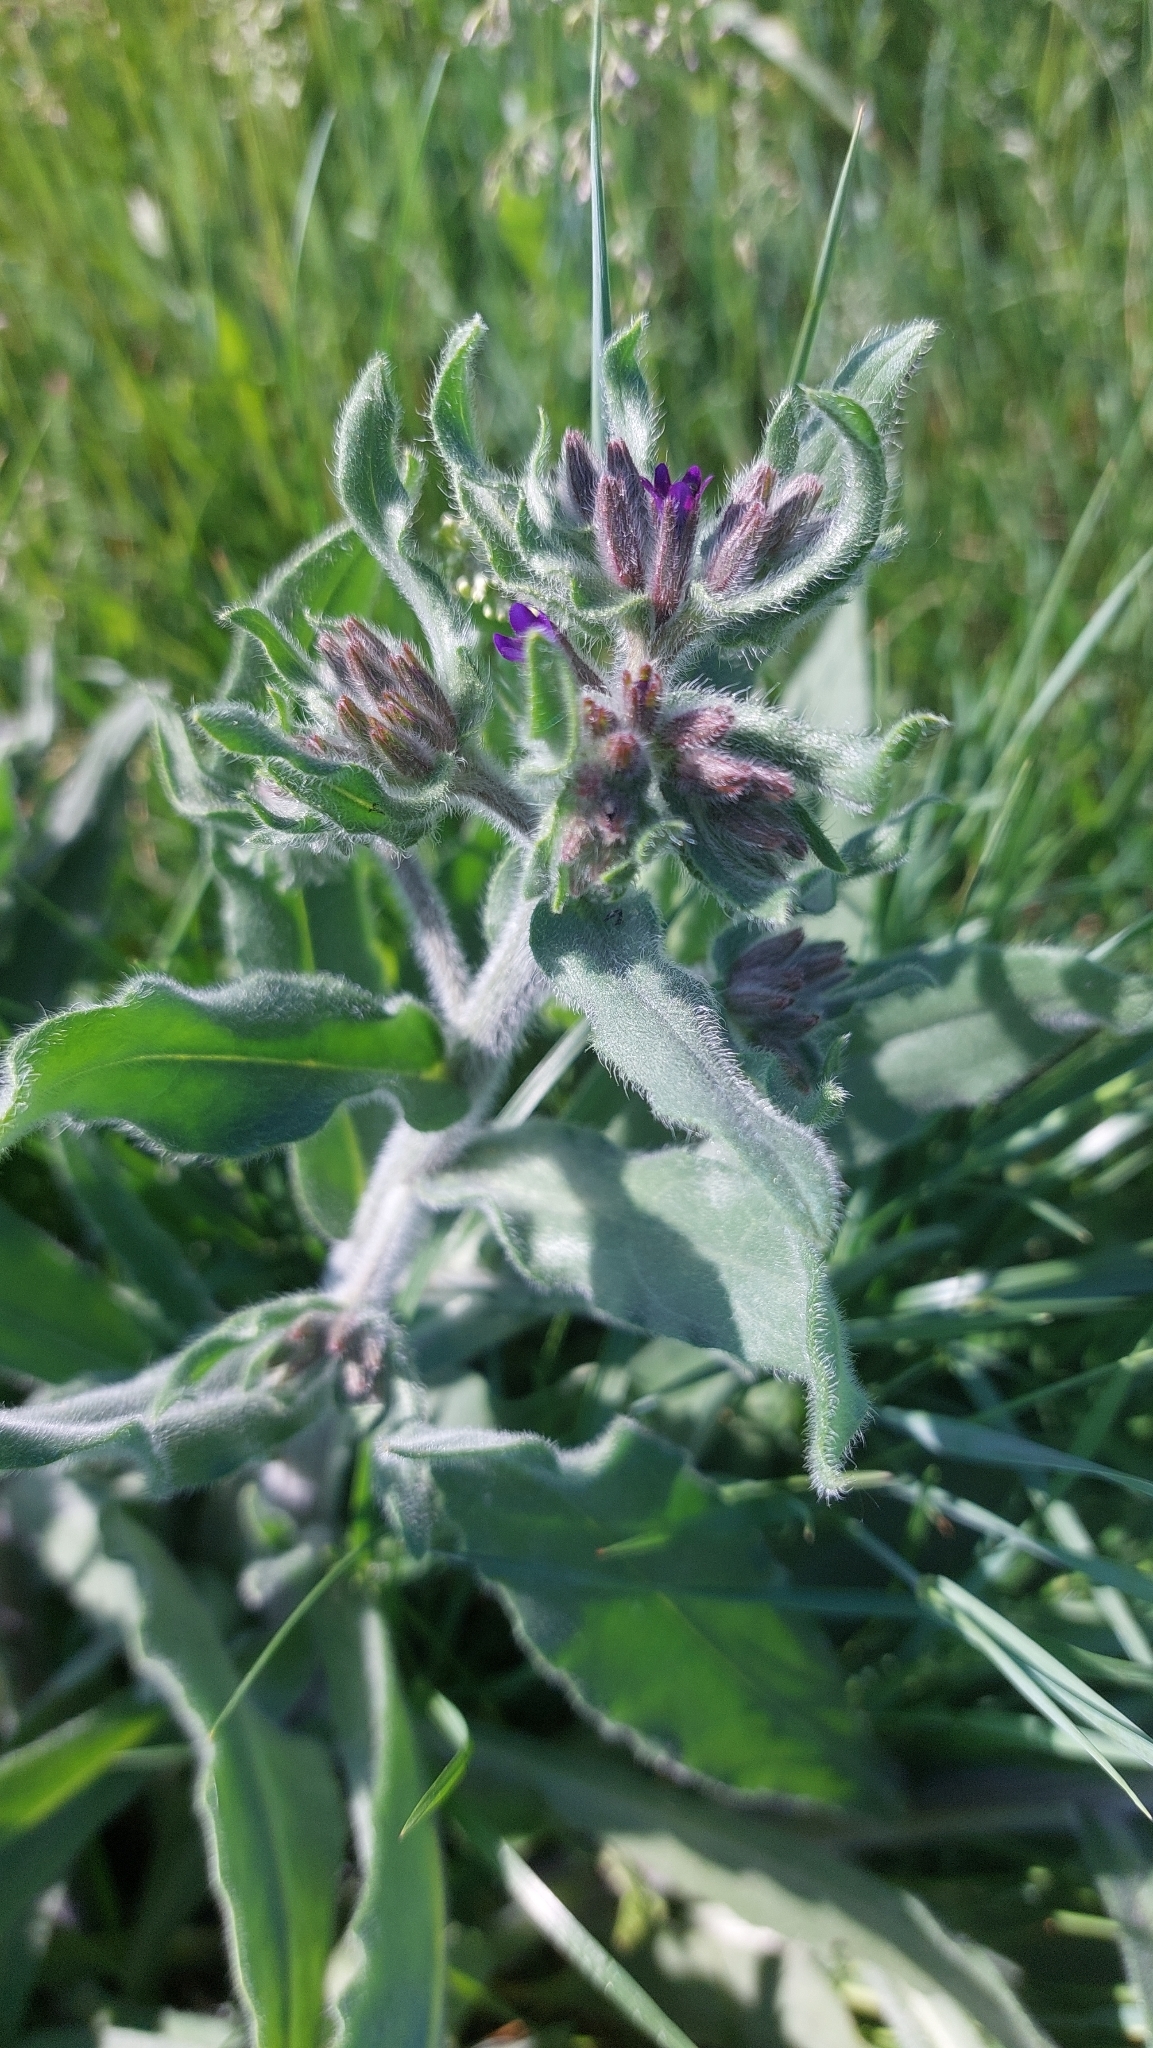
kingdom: Plantae
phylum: Tracheophyta
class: Magnoliopsida
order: Boraginales
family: Boraginaceae
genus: Anchusa
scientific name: Anchusa officinalis
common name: Alkanet
